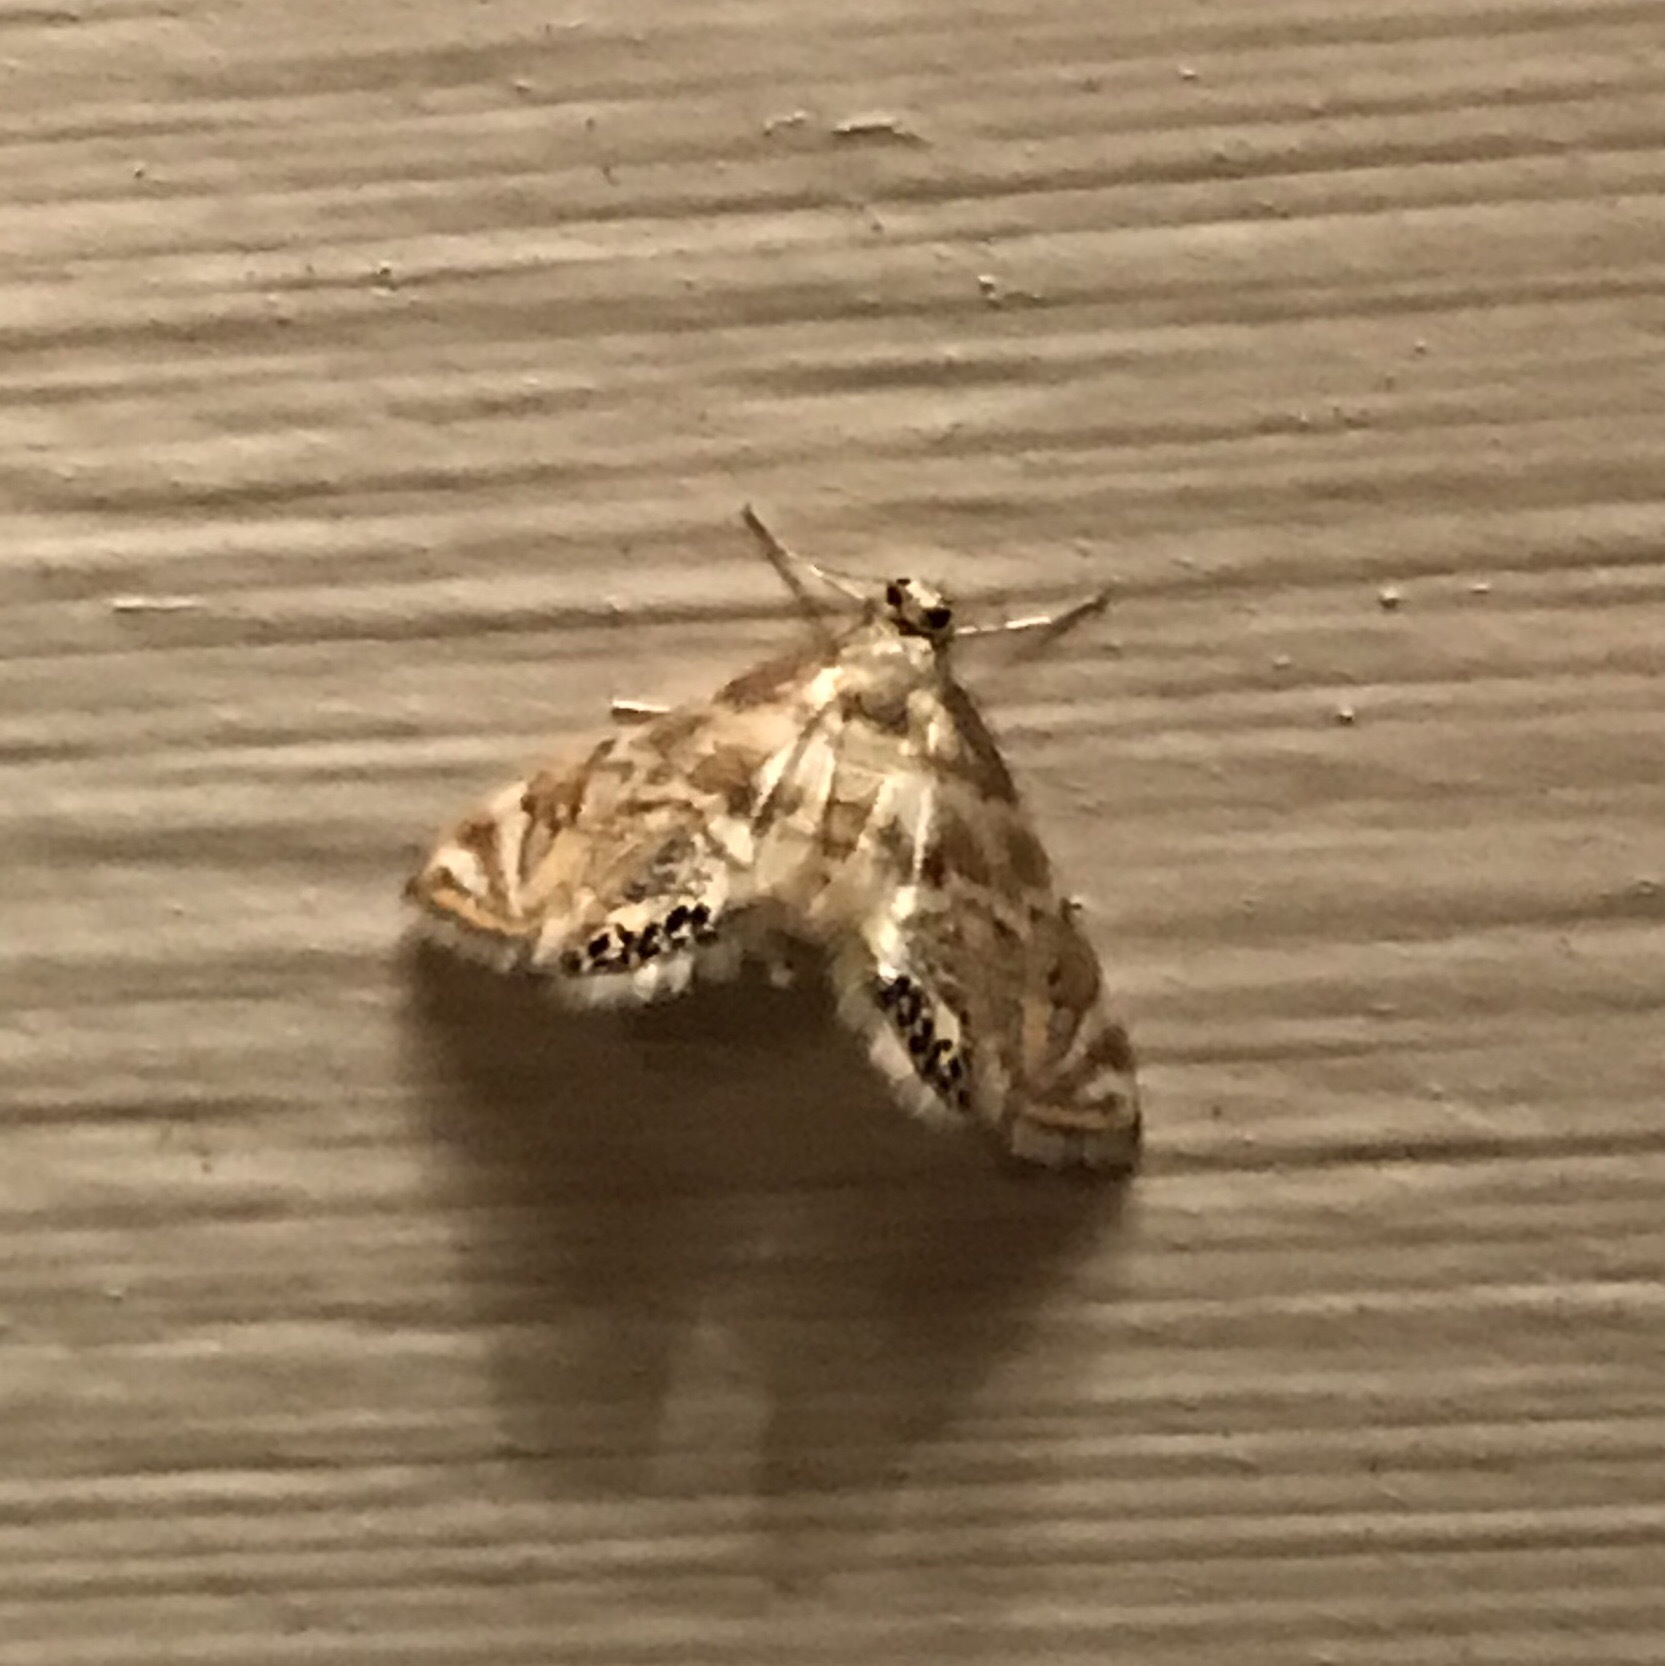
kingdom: Animalia
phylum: Arthropoda
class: Insecta
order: Lepidoptera
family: Crambidae
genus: Petrophila
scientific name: Petrophila canadensis
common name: Canadian petrophila
